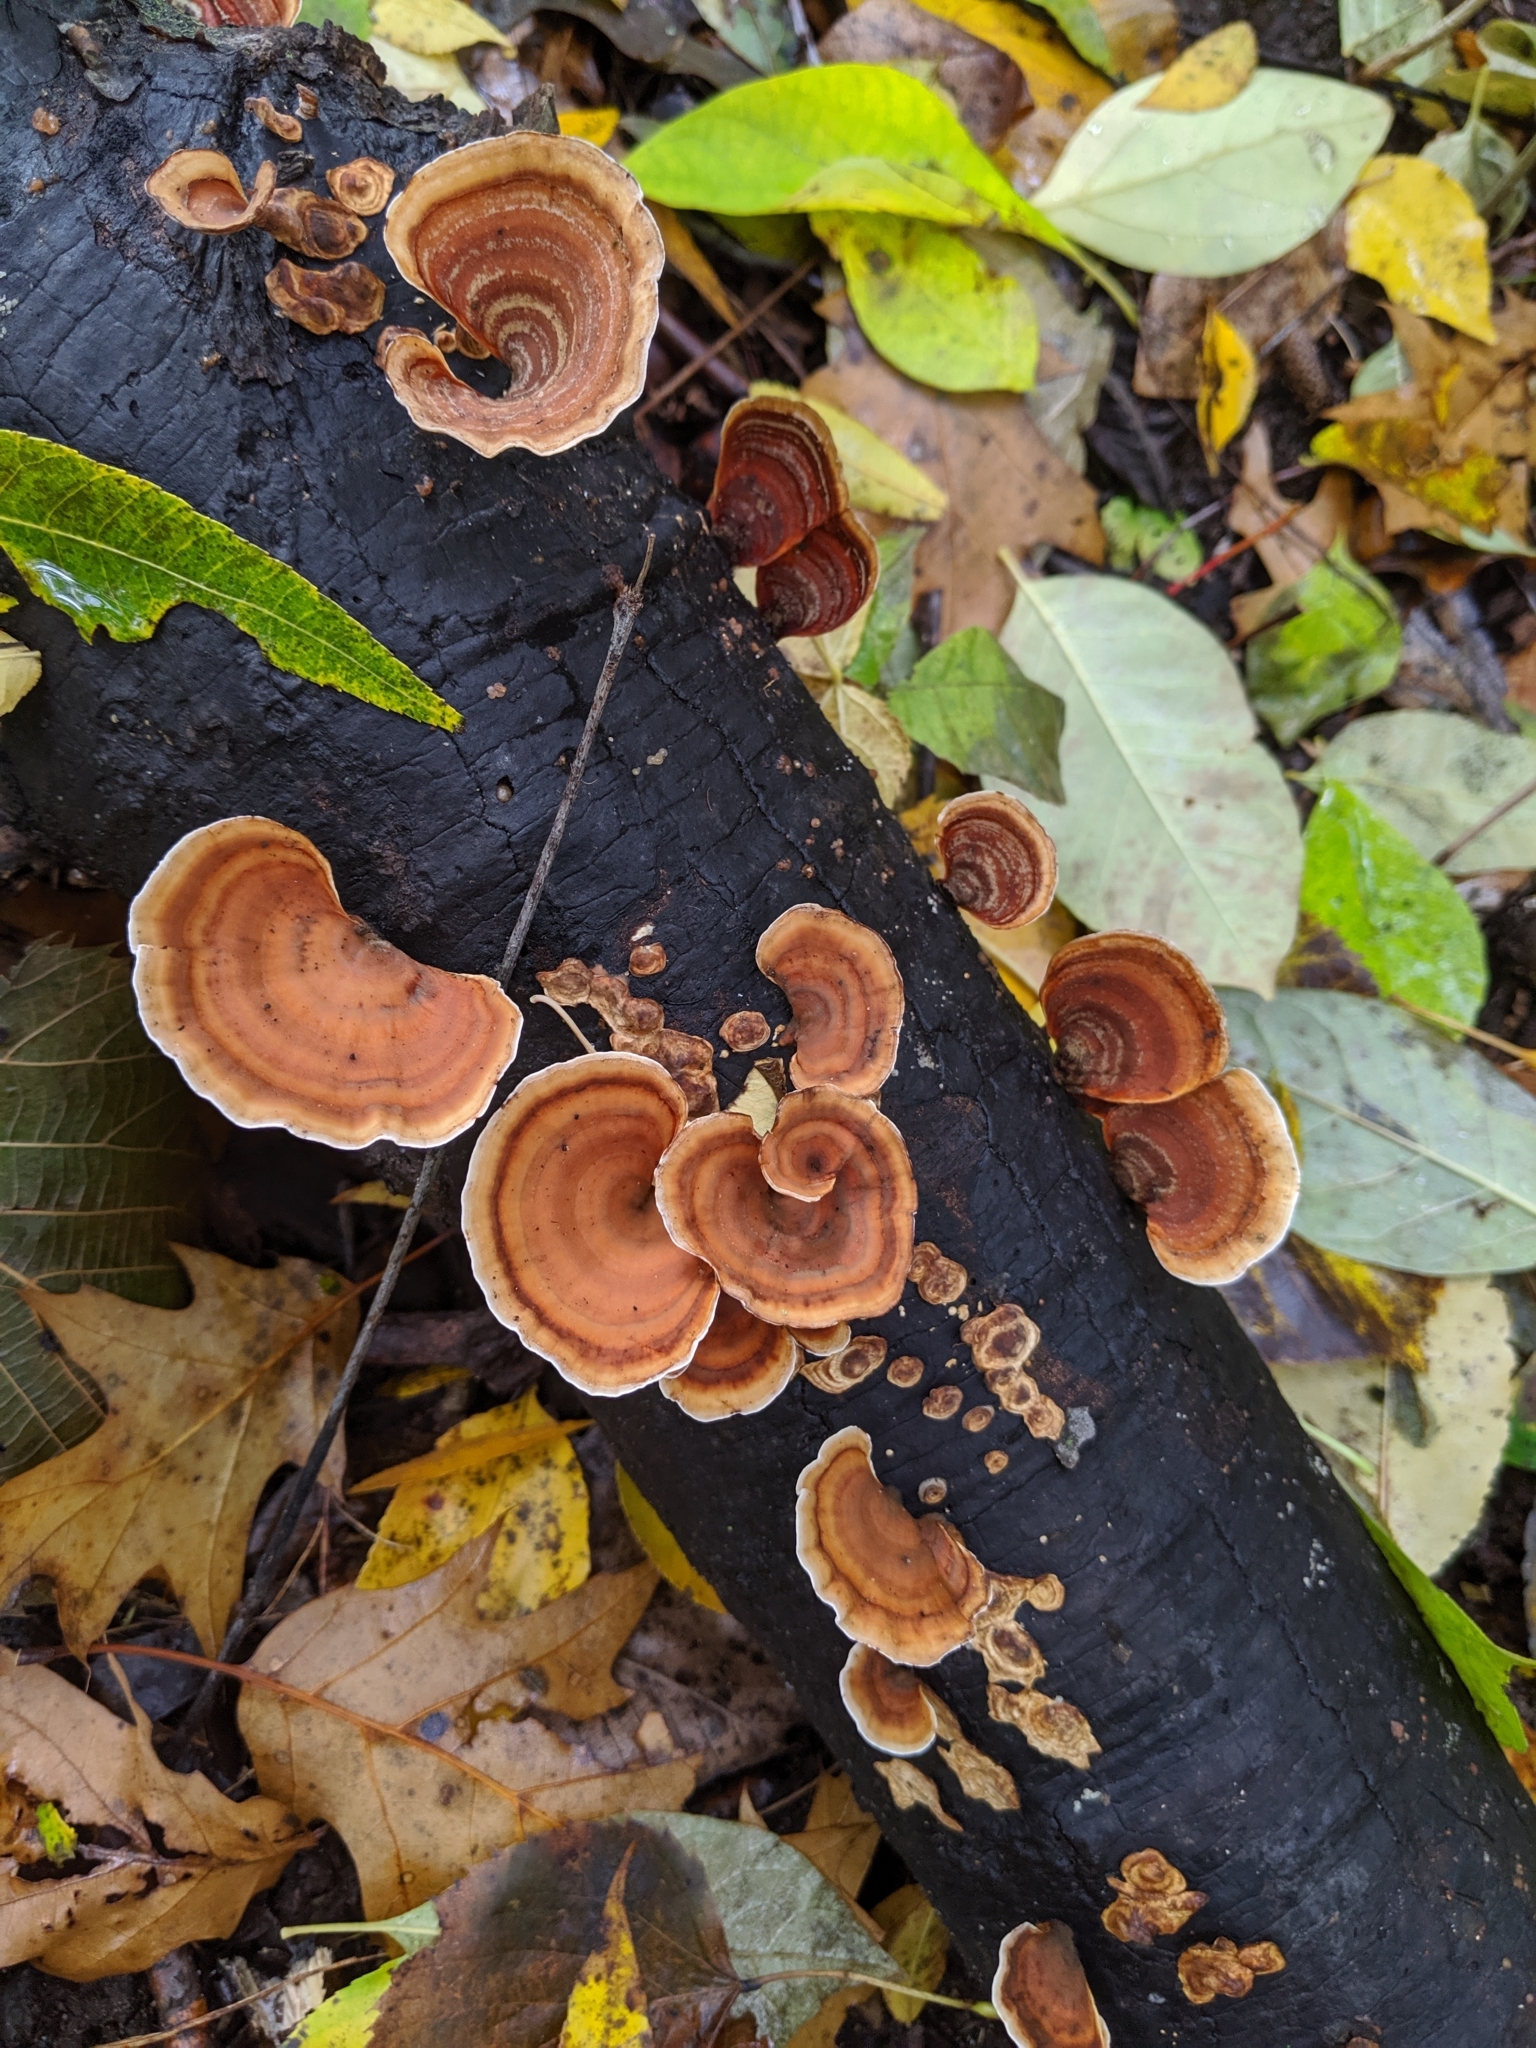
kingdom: Fungi
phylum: Basidiomycota
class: Agaricomycetes
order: Russulales
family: Stereaceae
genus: Stereum
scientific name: Stereum ostrea
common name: False turkeytail
